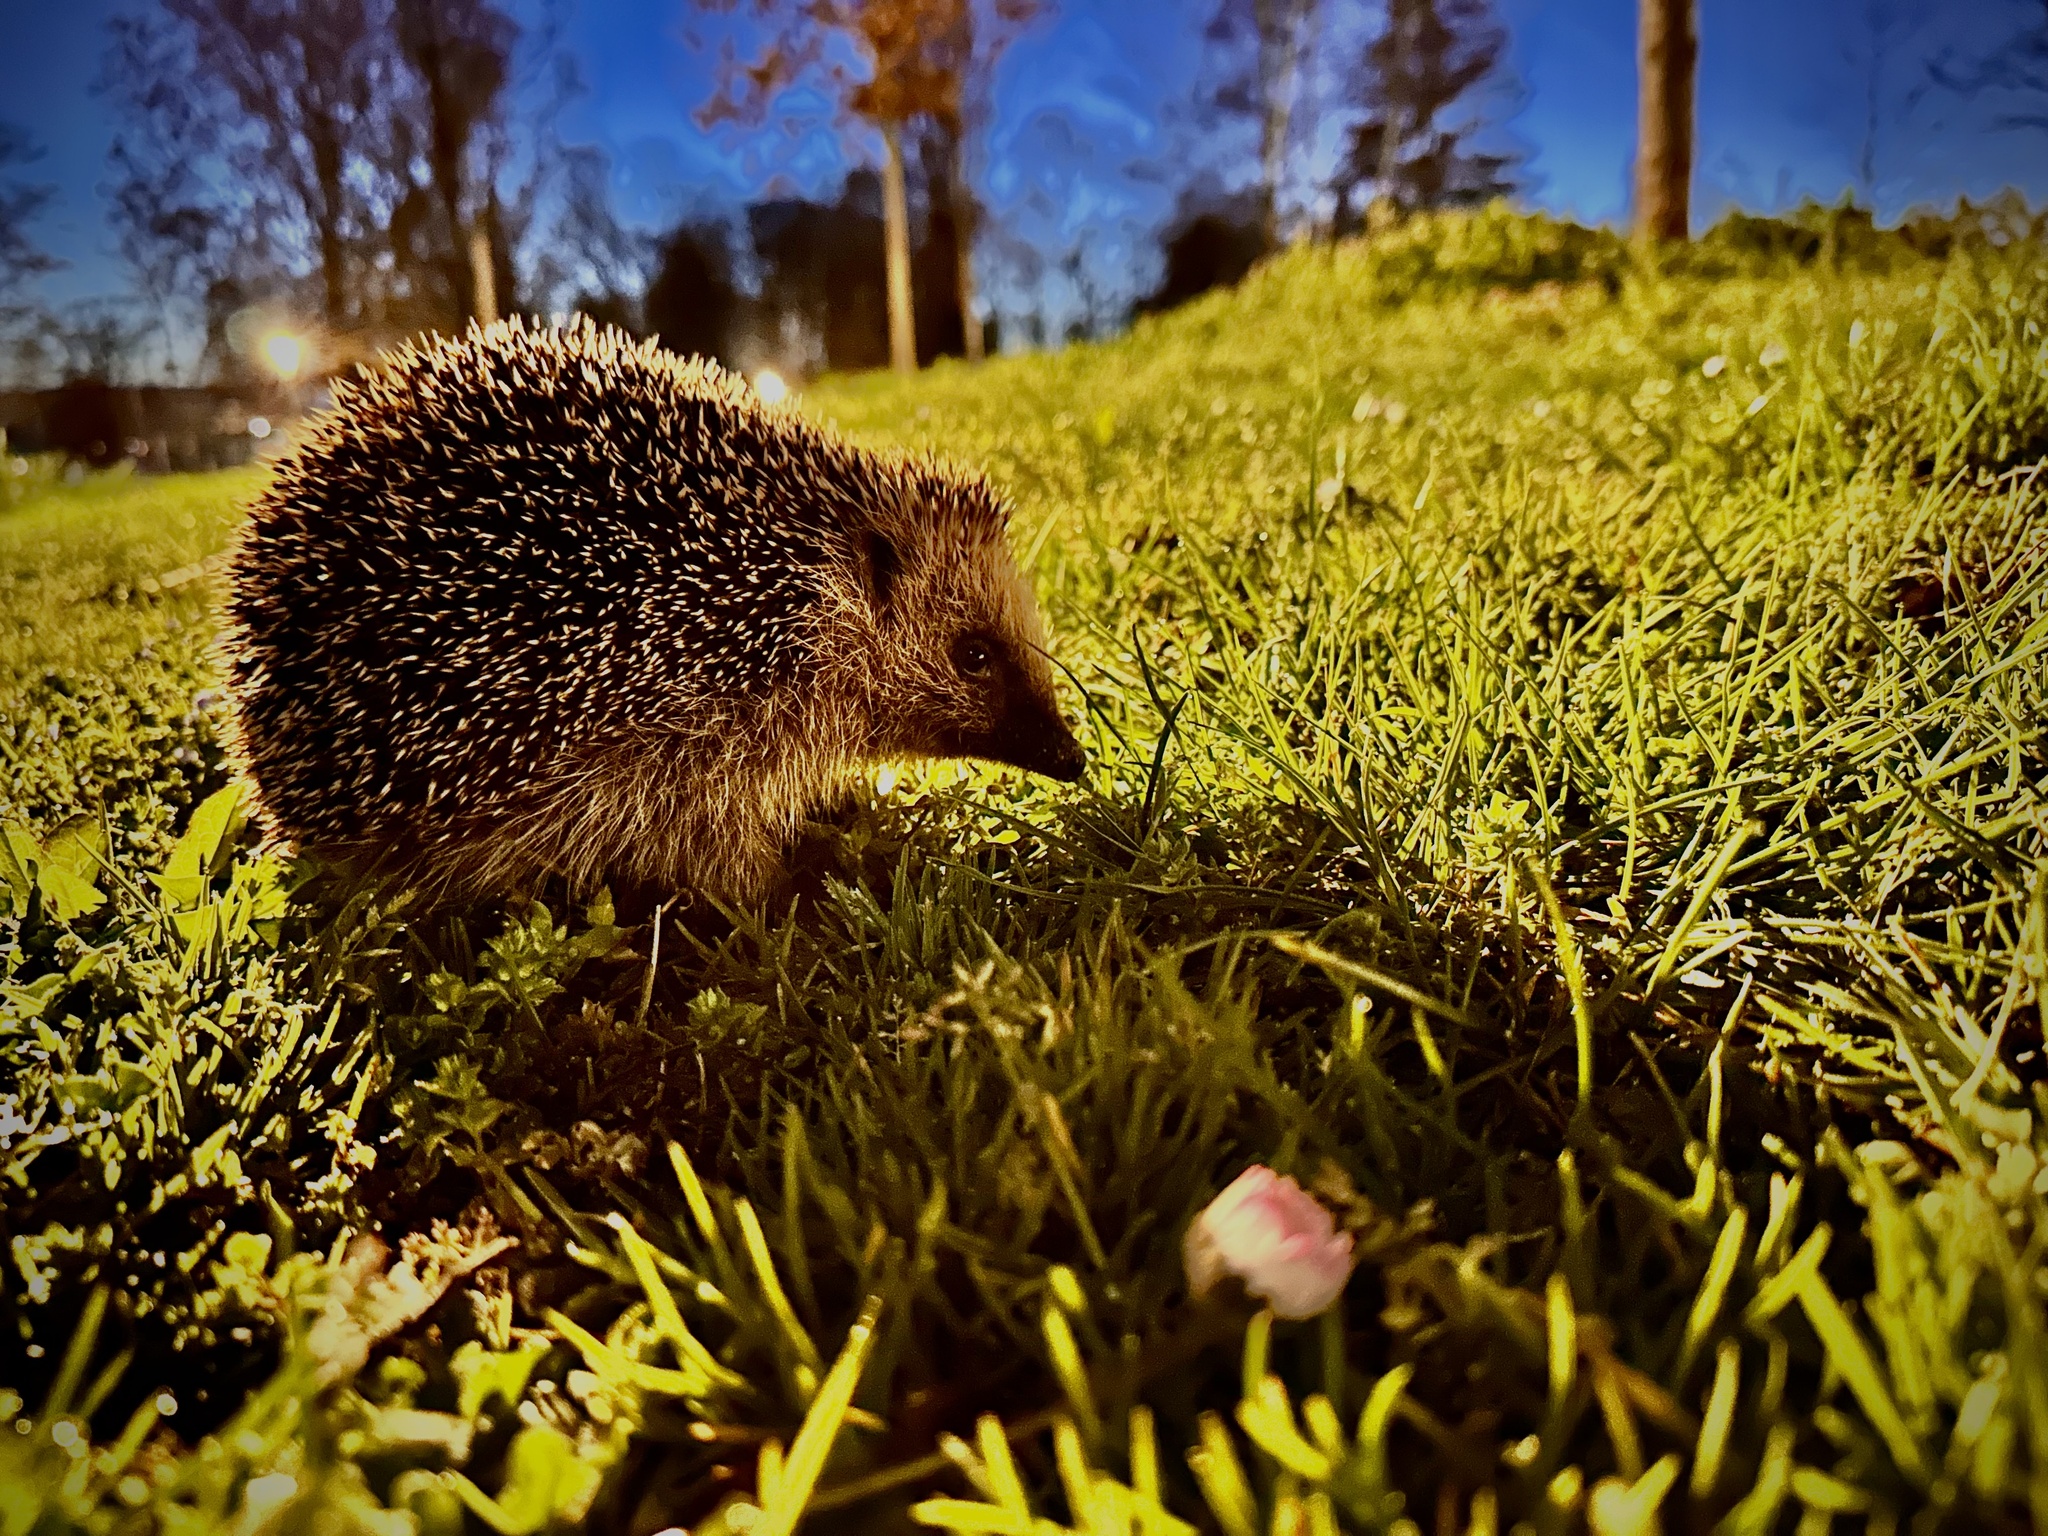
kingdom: Animalia
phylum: Chordata
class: Mammalia
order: Erinaceomorpha
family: Erinaceidae
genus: Erinaceus
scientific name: Erinaceus europaeus
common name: West european hedgehog
